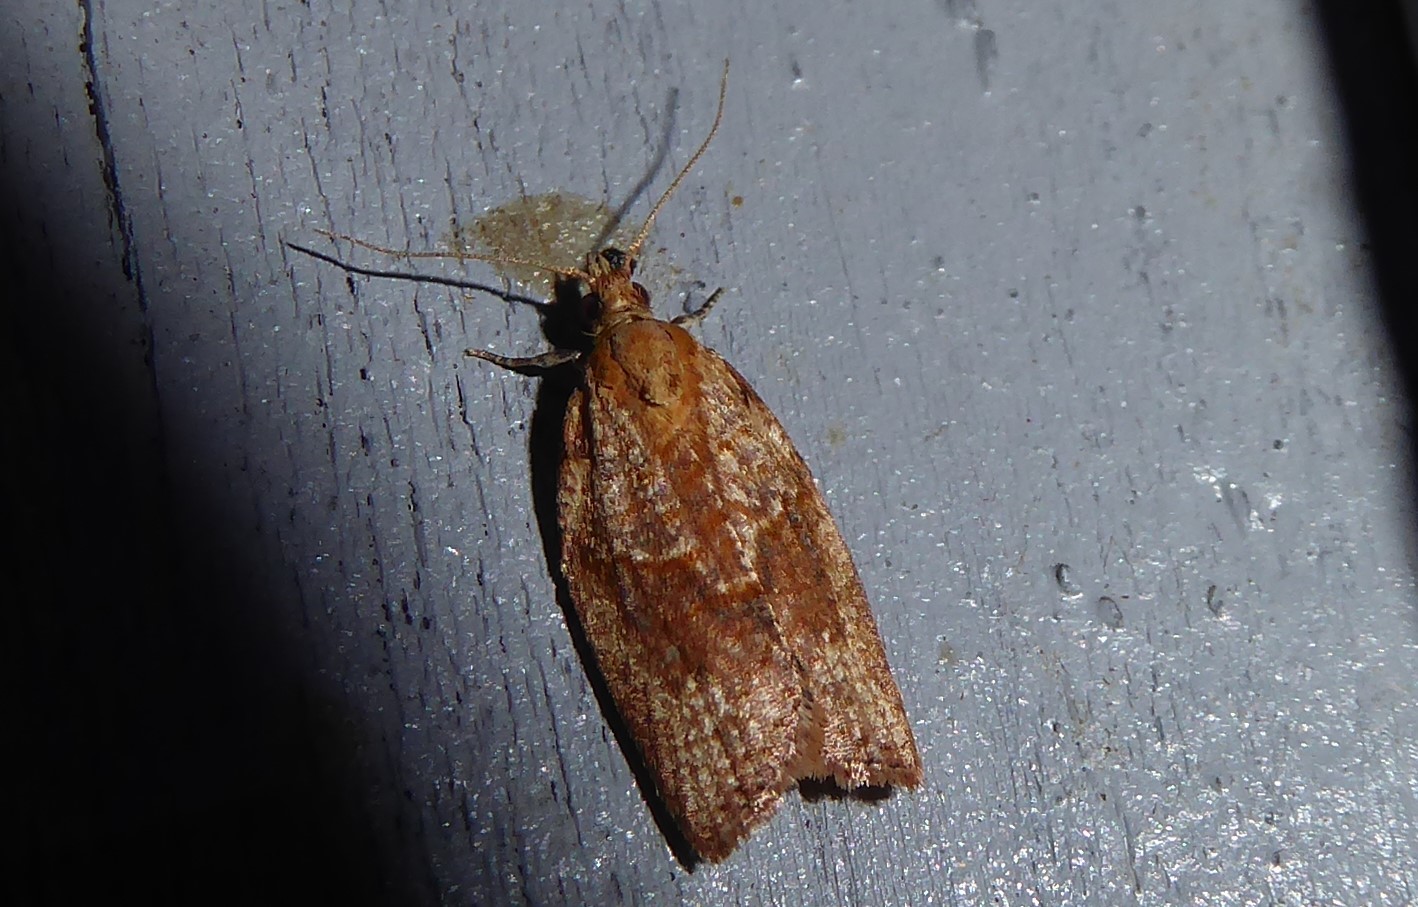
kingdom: Animalia
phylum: Arthropoda
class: Insecta
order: Lepidoptera
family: Tortricidae
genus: Epiphyas
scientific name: Epiphyas postvittana
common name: Light brown apple moth
